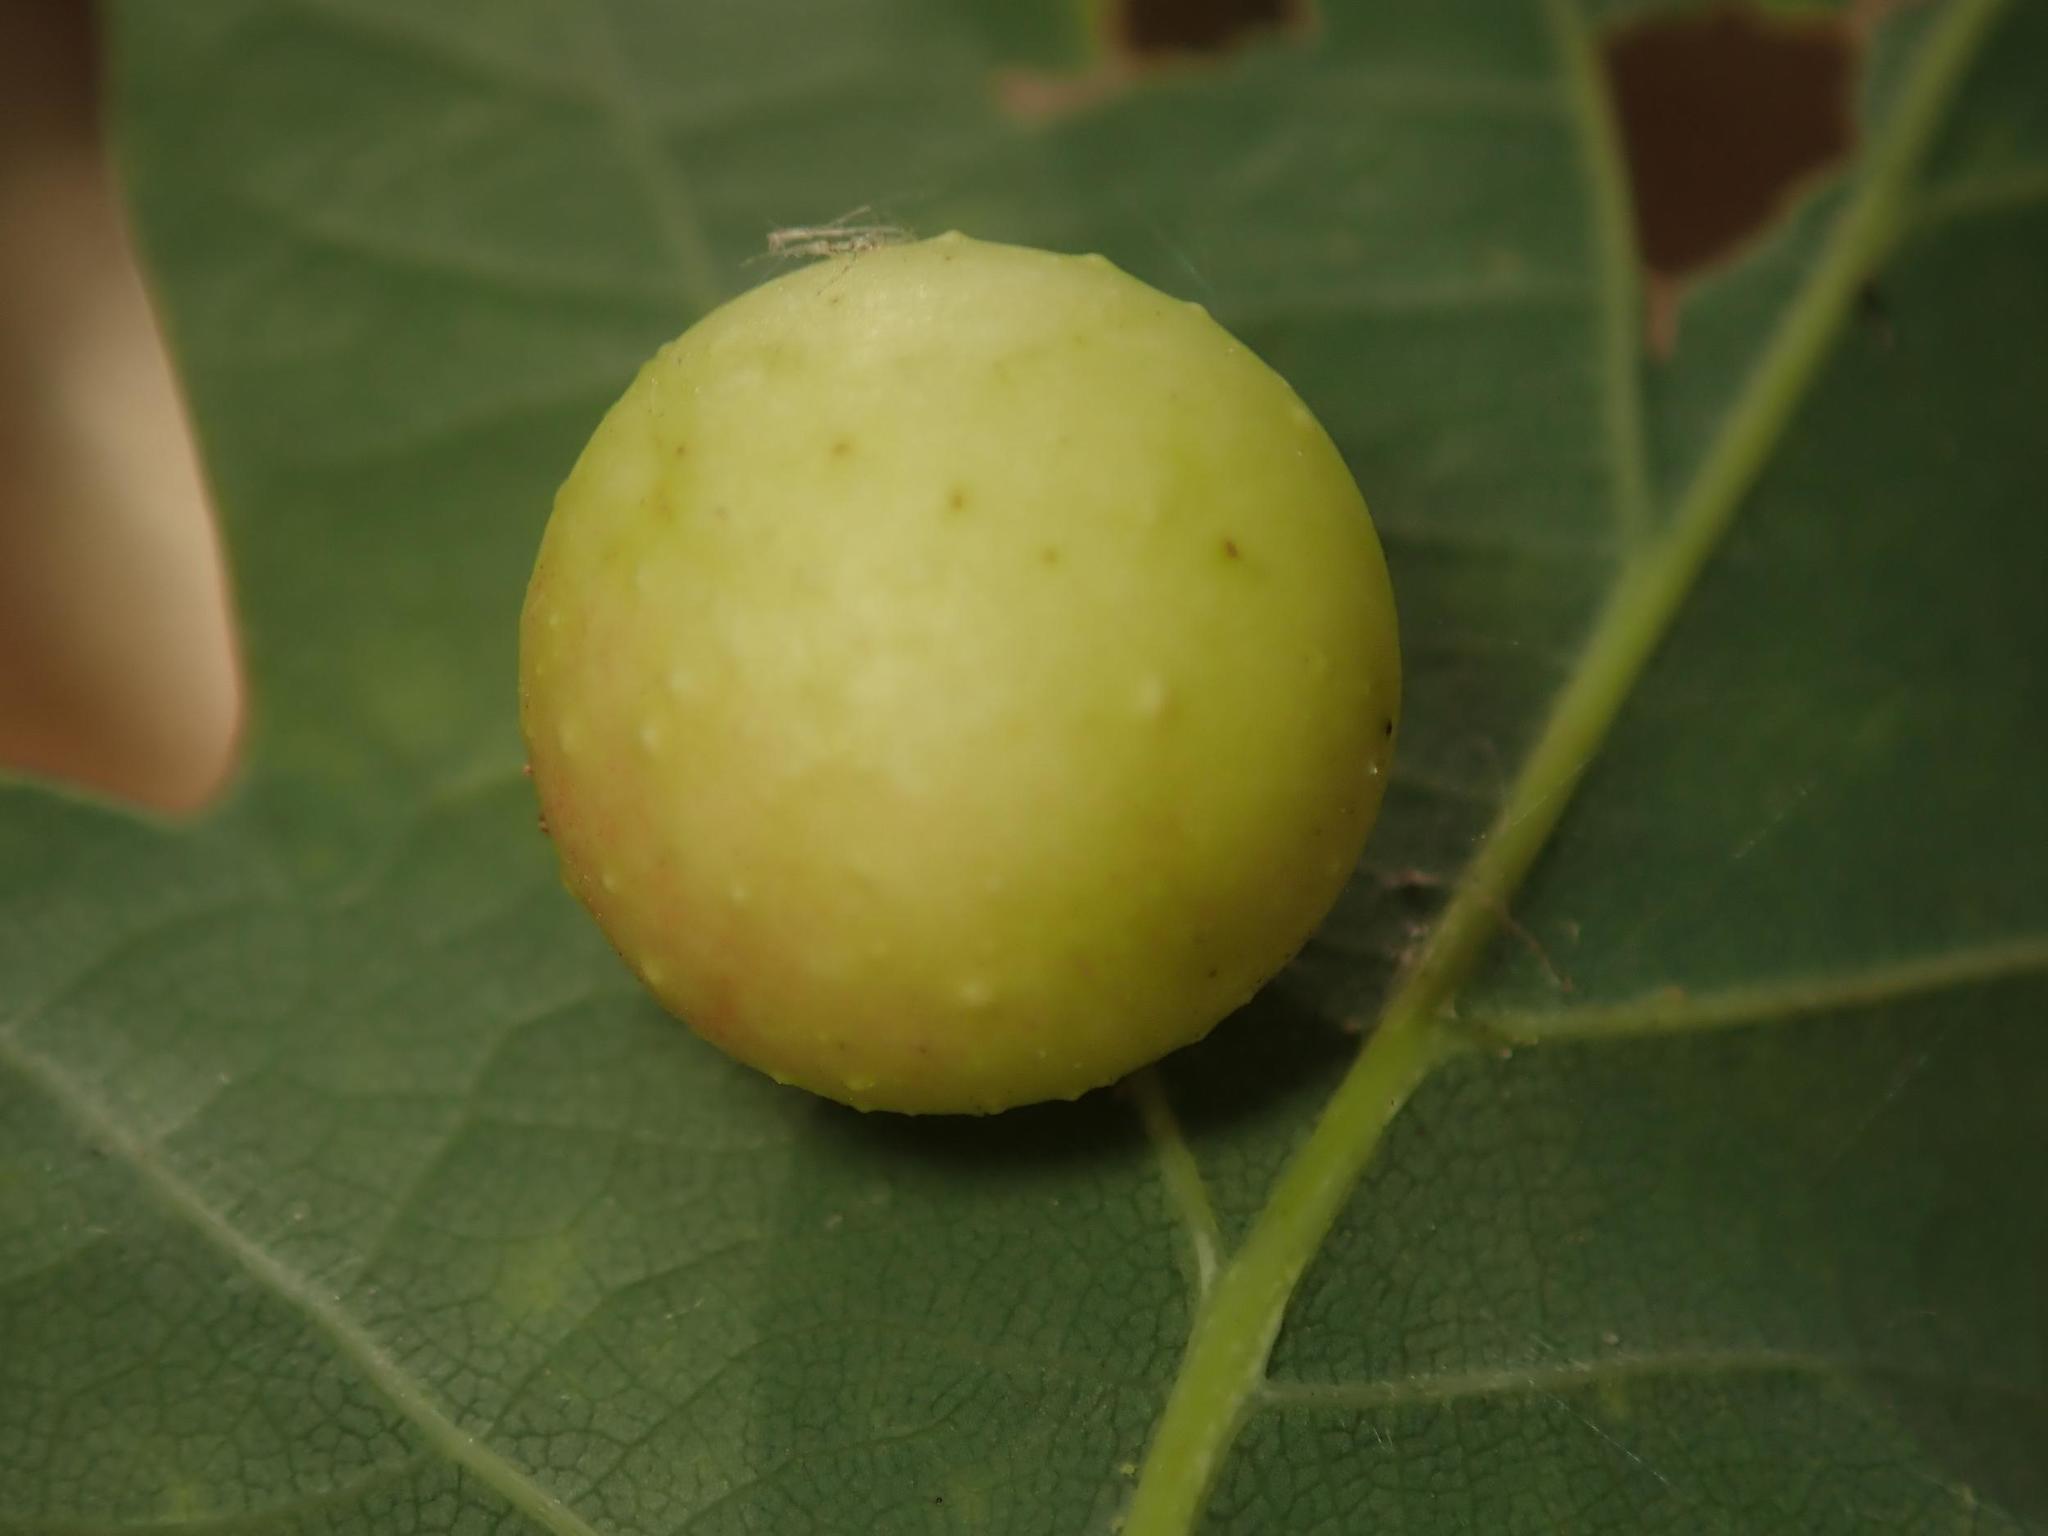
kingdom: Animalia
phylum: Arthropoda
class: Insecta
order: Hymenoptera
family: Cynipidae
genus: Cynips
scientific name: Cynips quercusfolii
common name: Cherry gall
